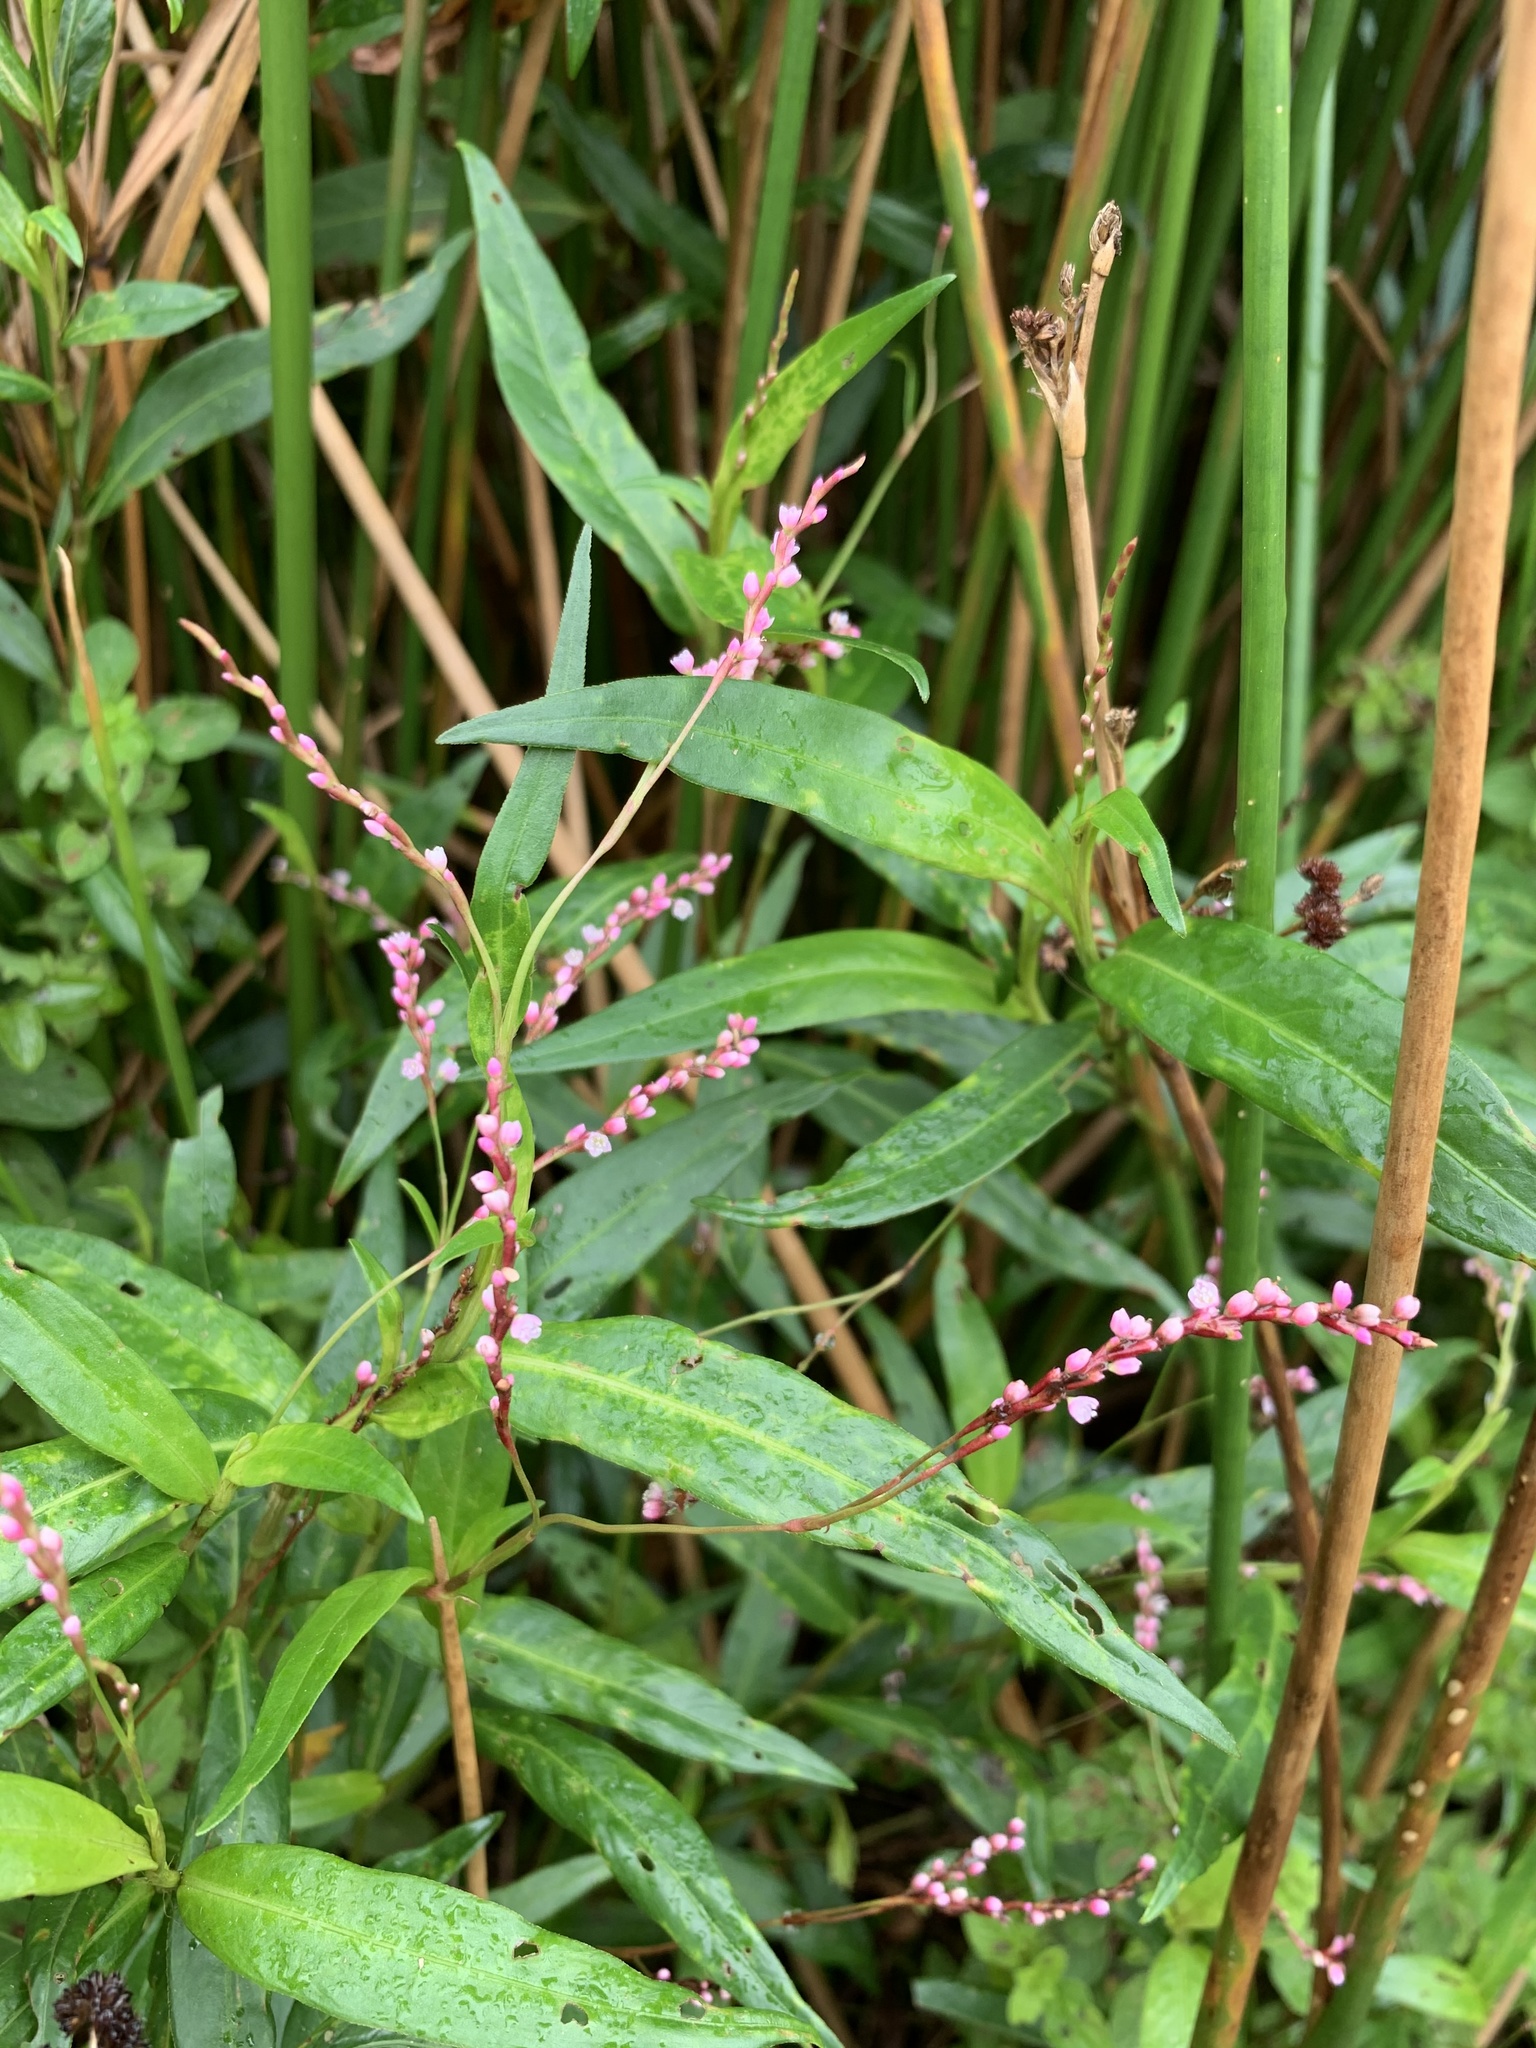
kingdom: Plantae
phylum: Tracheophyta
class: Magnoliopsida
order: Caryophyllales
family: Polygonaceae
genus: Persicaria
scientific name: Persicaria decipiens
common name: Willow-weed
